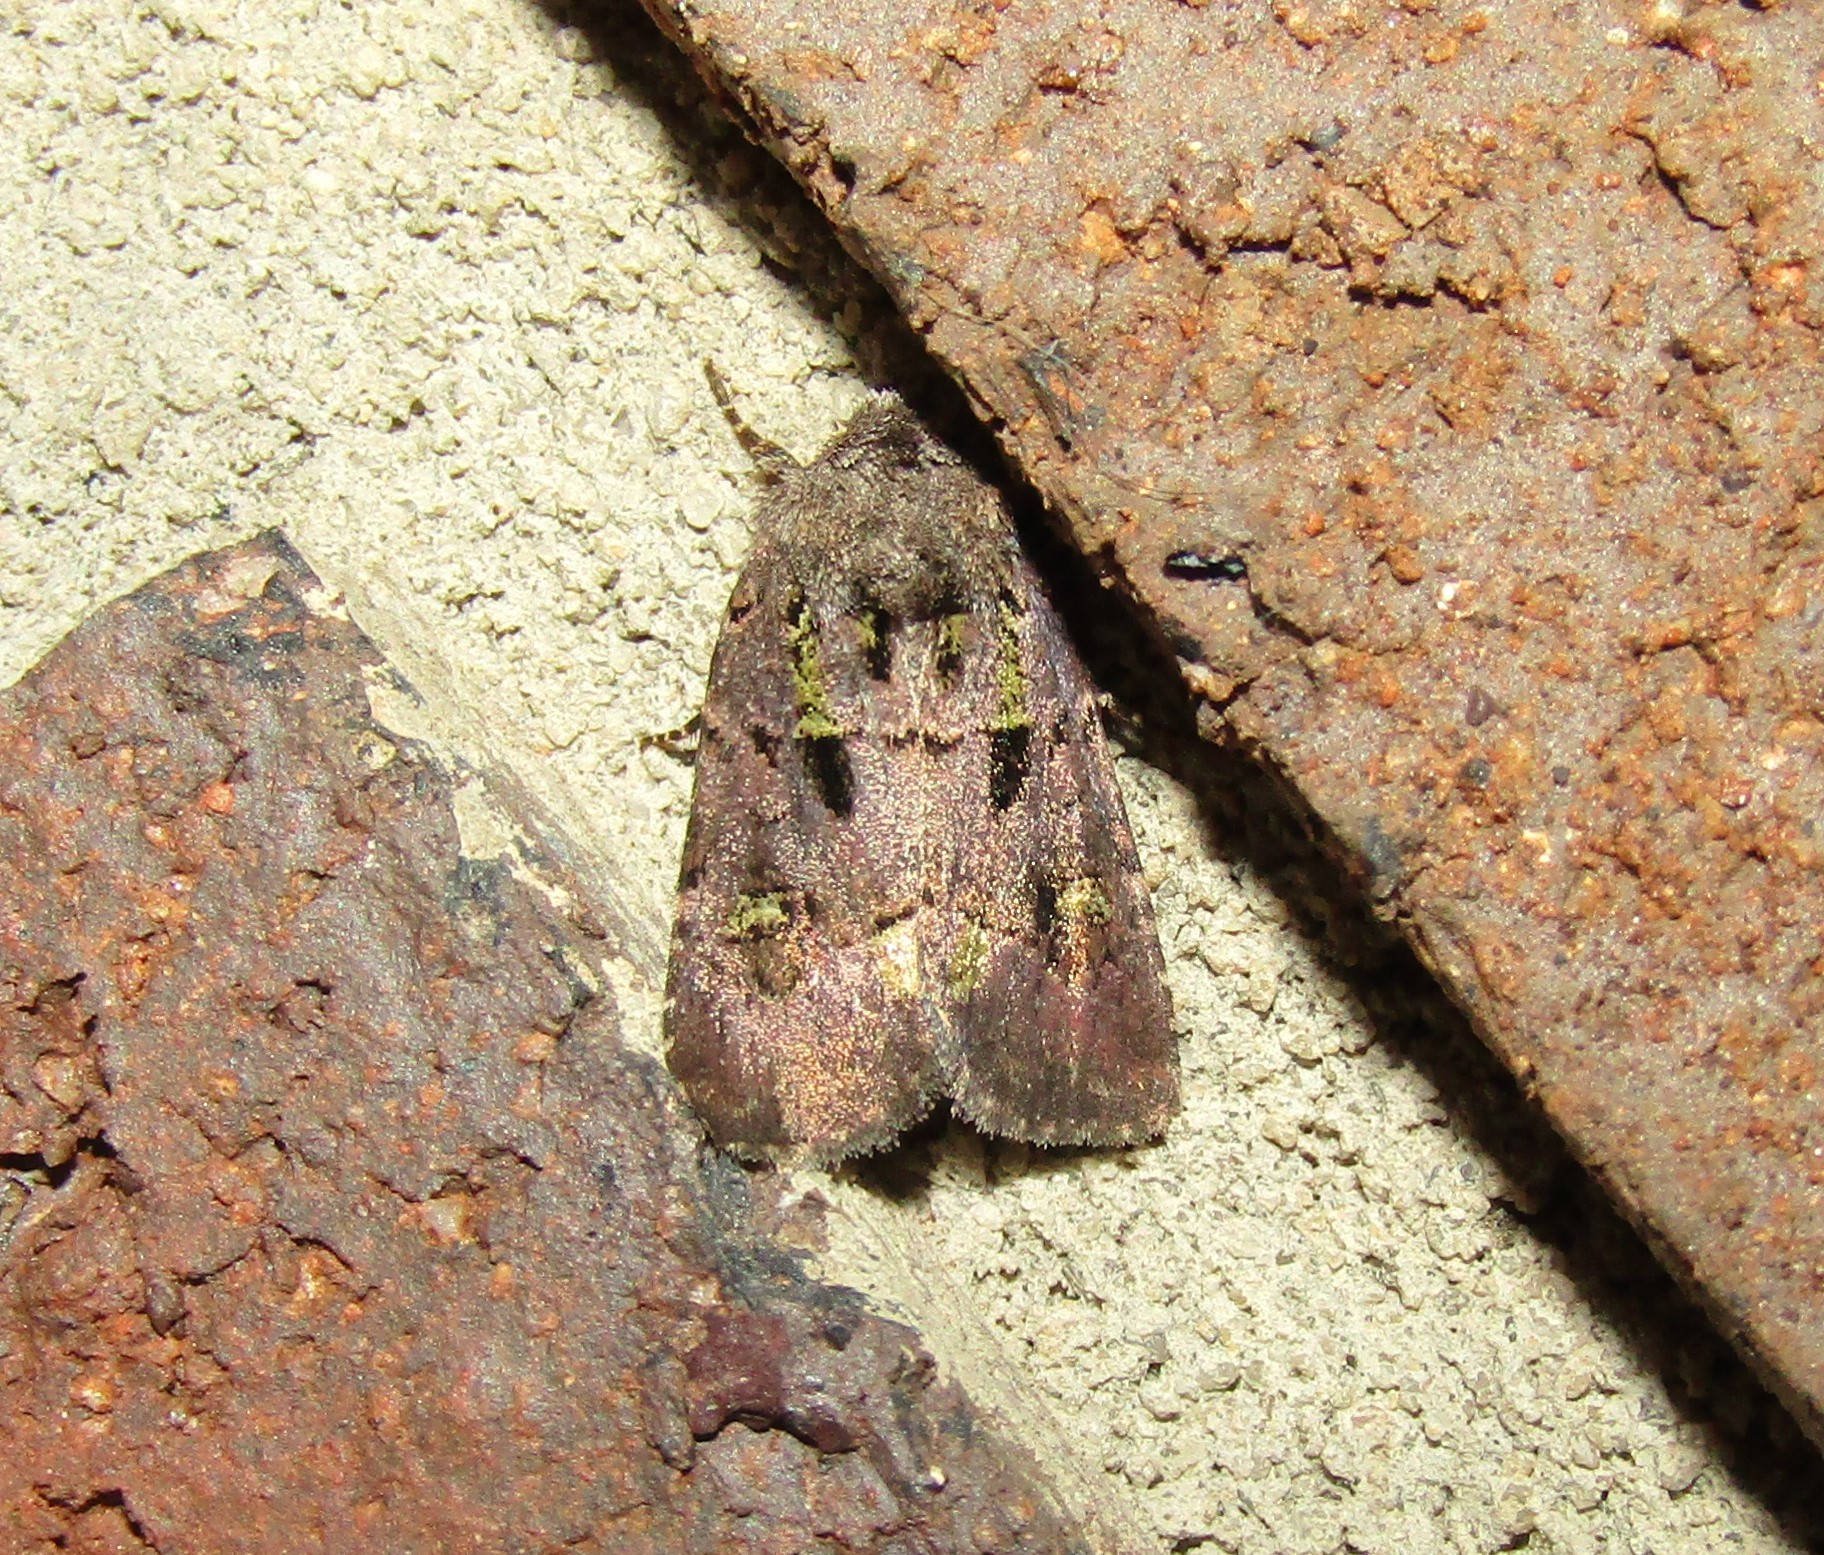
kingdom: Animalia
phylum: Arthropoda
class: Insecta
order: Lepidoptera
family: Noctuidae
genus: Lacinipolia
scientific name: Lacinipolia renigera
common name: Kidney-spotted minor
